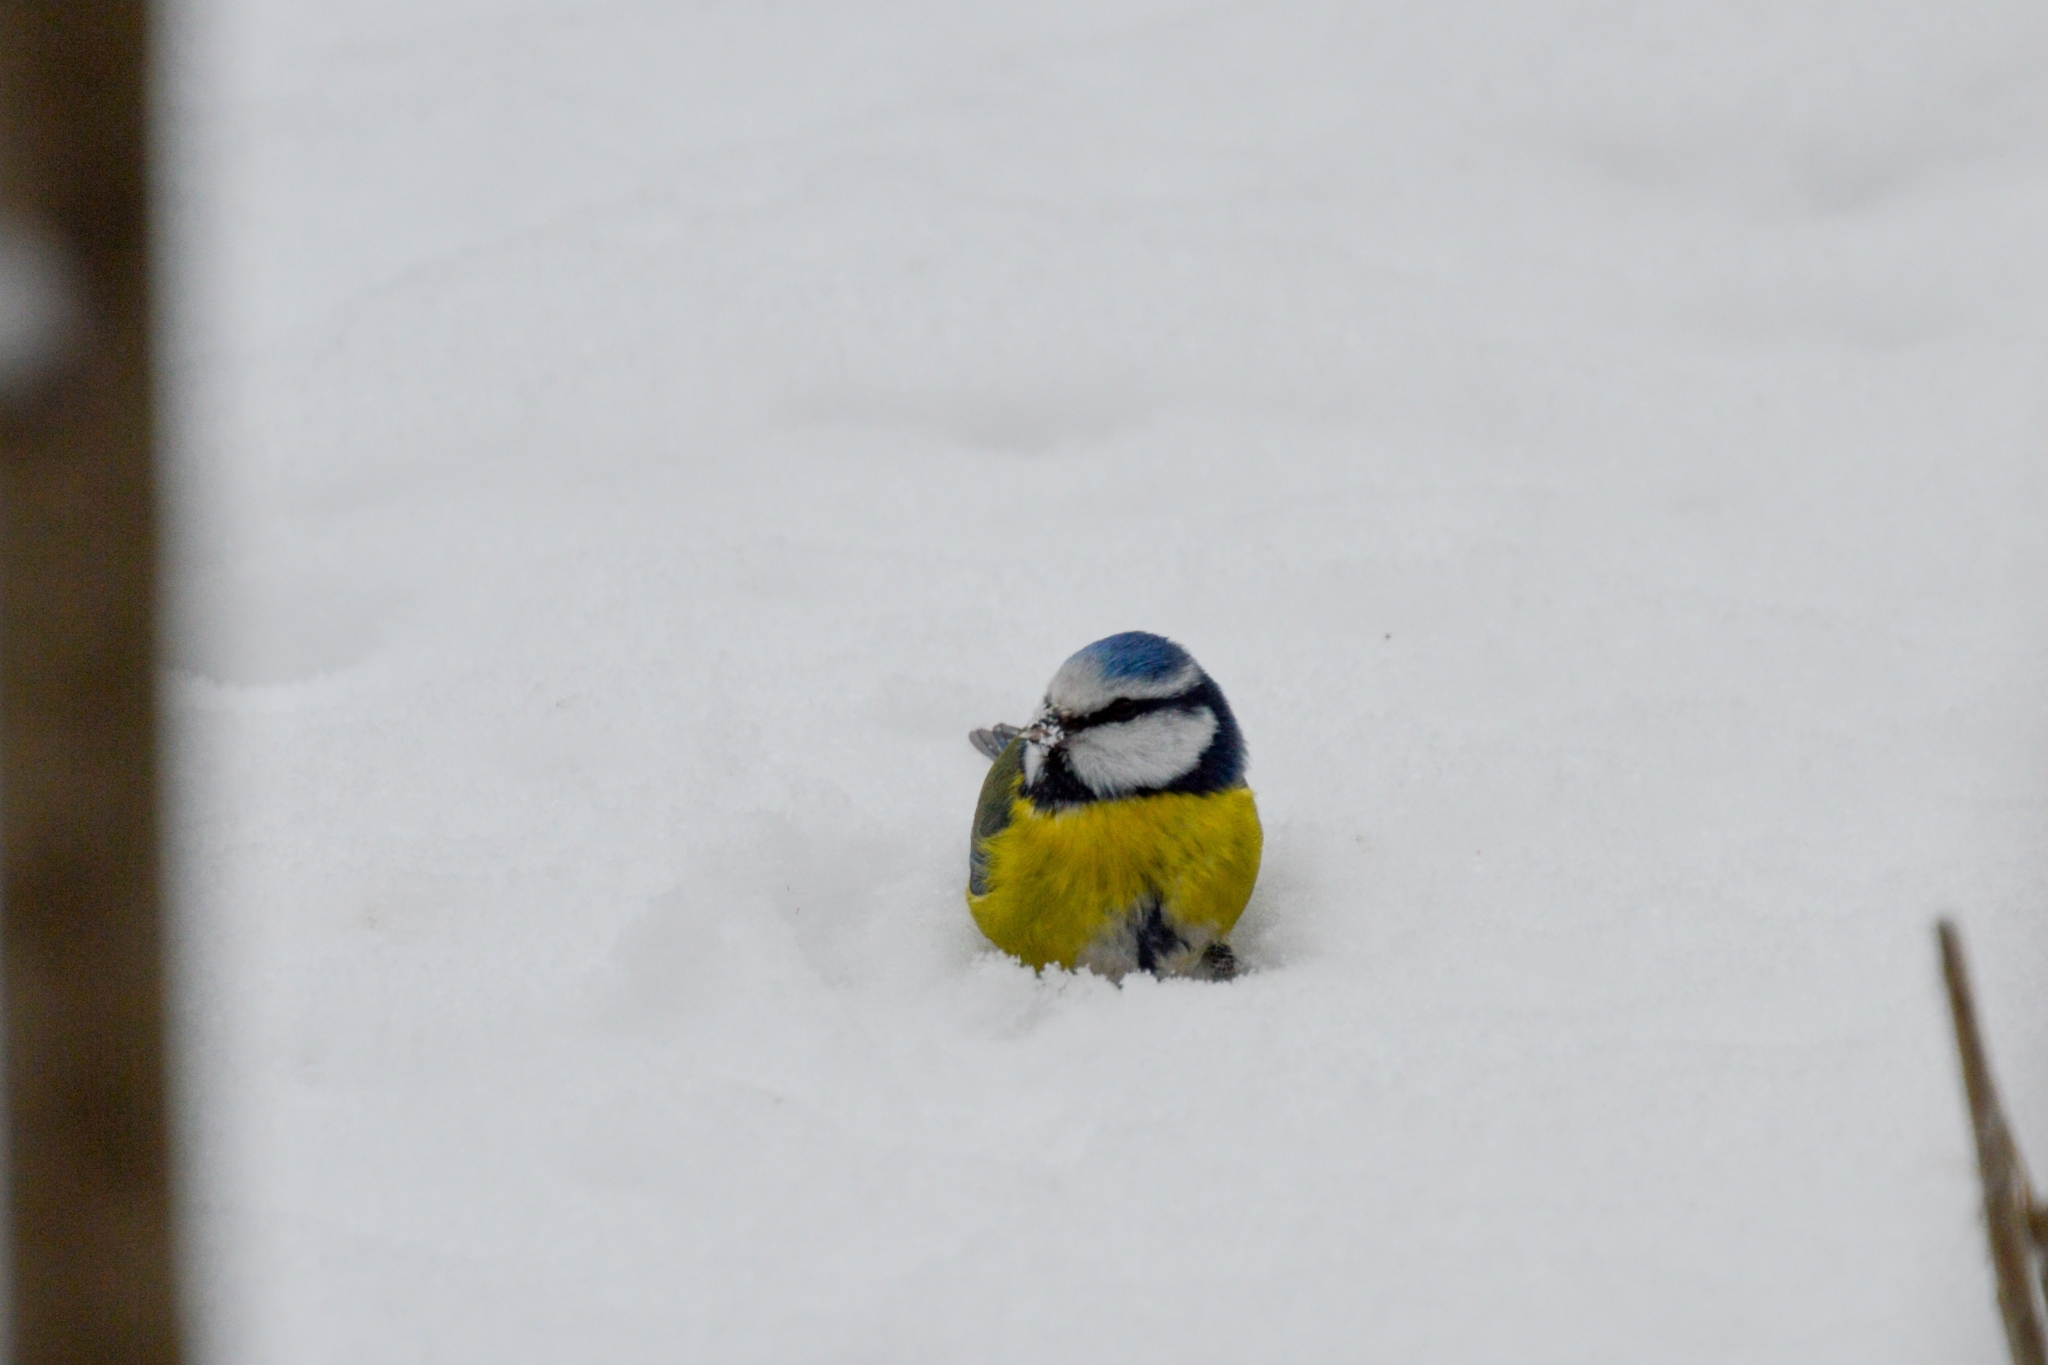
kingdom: Animalia
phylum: Chordata
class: Aves
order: Passeriformes
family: Paridae
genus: Cyanistes
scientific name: Cyanistes caeruleus
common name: Eurasian blue tit
